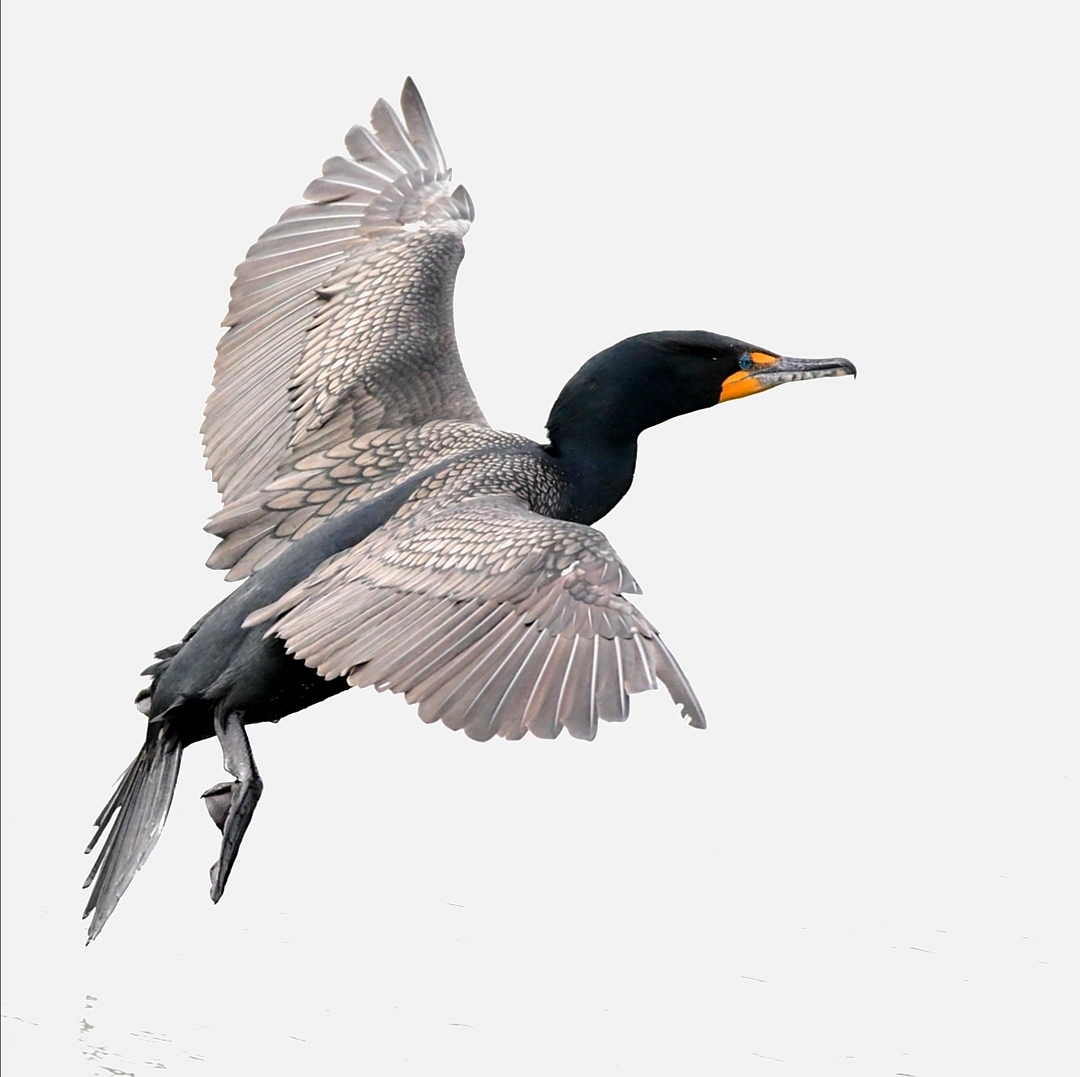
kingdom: Animalia
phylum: Chordata
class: Aves
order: Suliformes
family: Phalacrocoracidae
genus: Phalacrocorax
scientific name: Phalacrocorax auritus
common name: Double-crested cormorant
